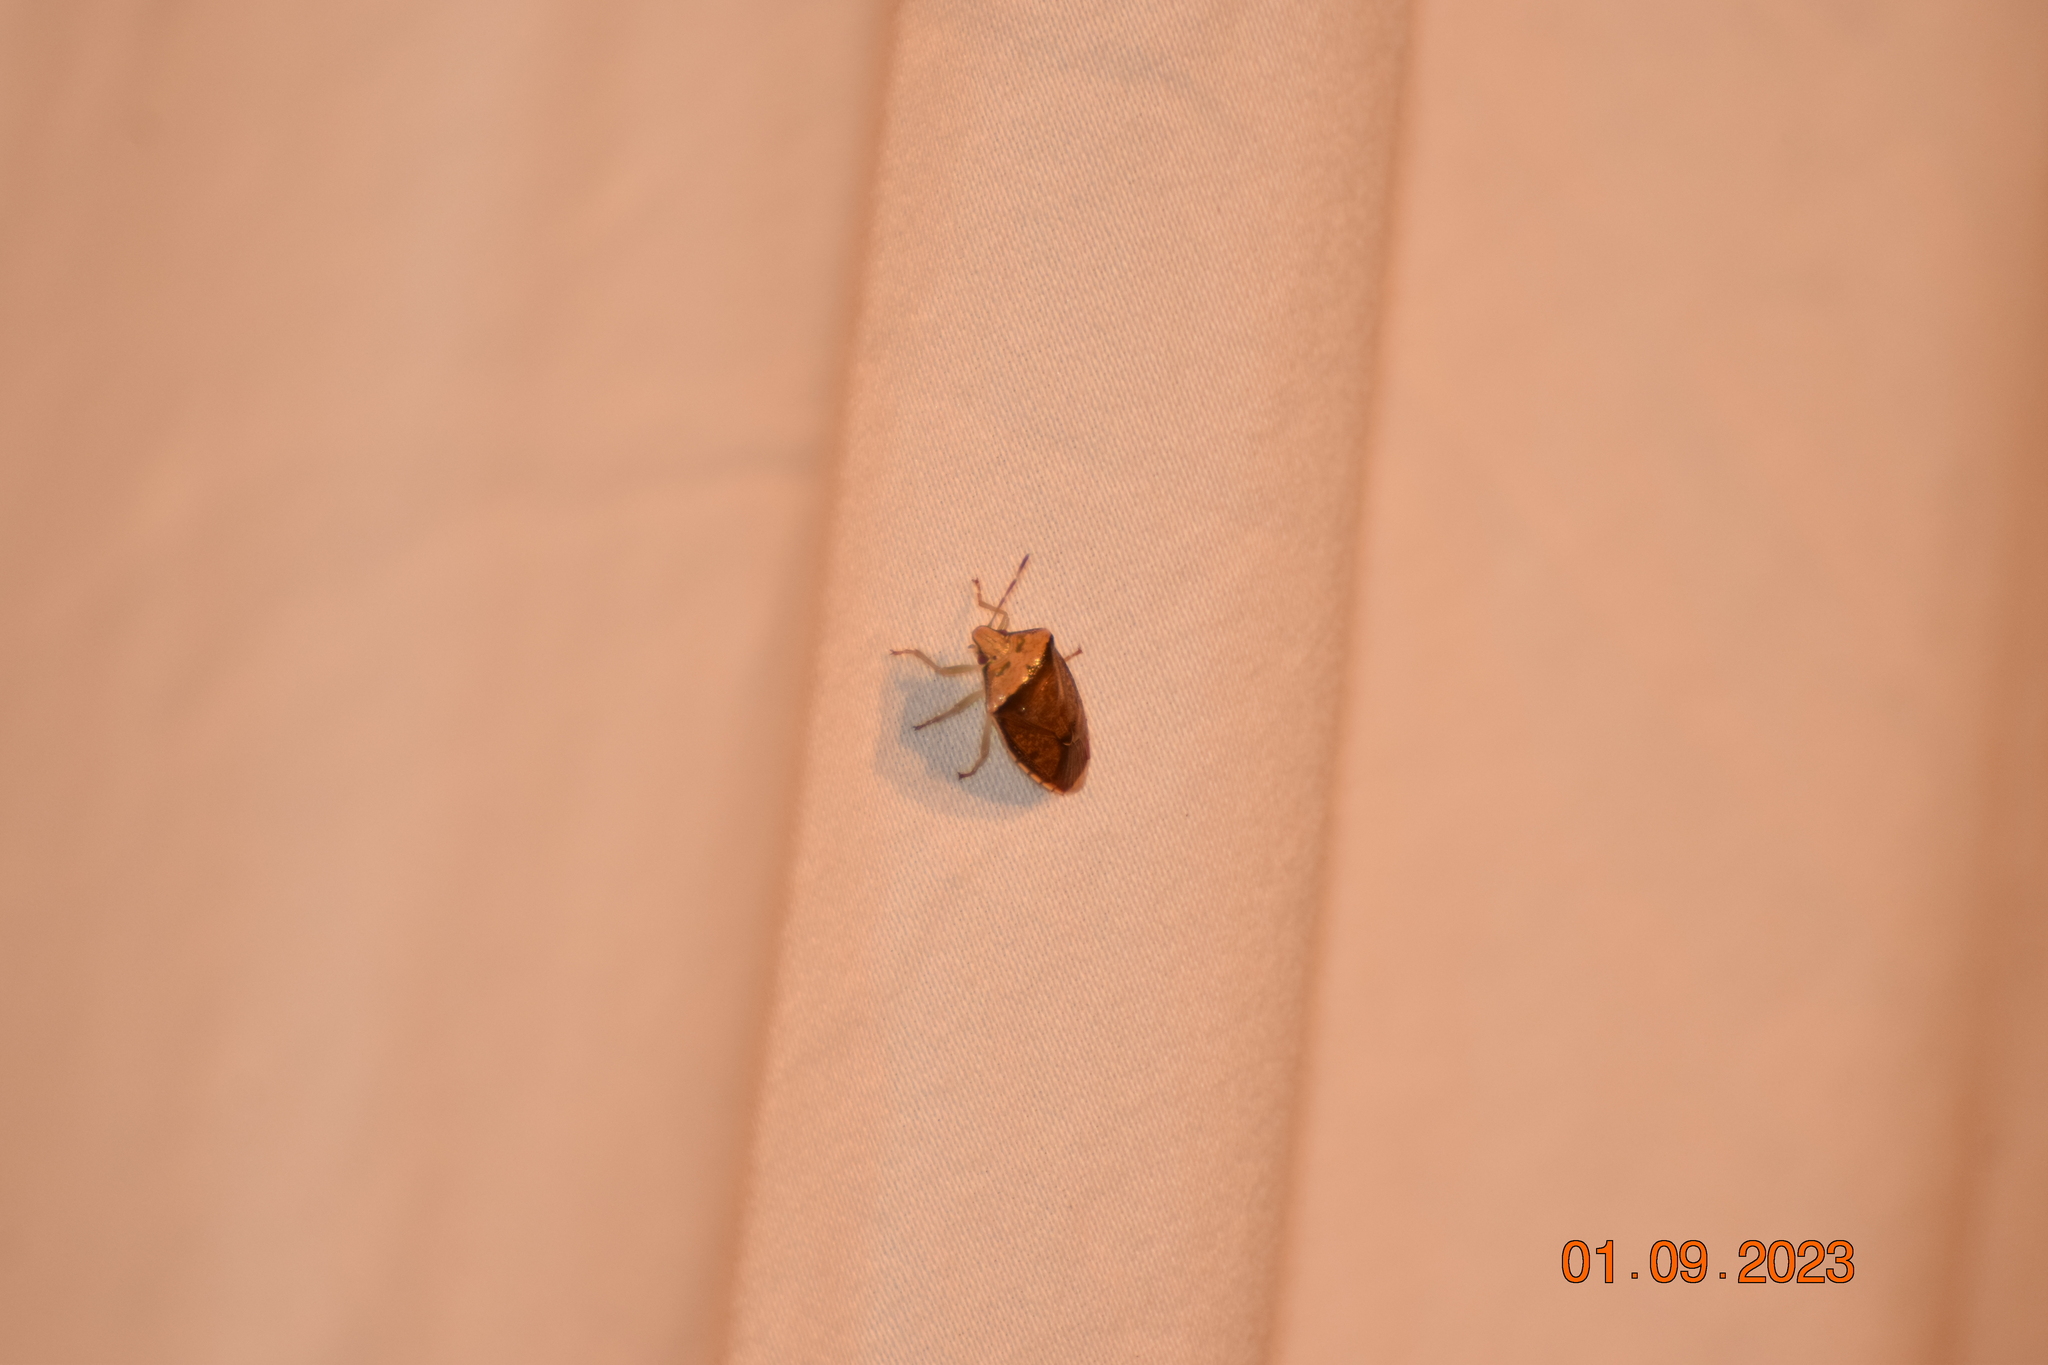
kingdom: Animalia
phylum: Arthropoda
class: Insecta
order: Hemiptera
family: Pentatomidae
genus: Banasa
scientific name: Banasa calva
